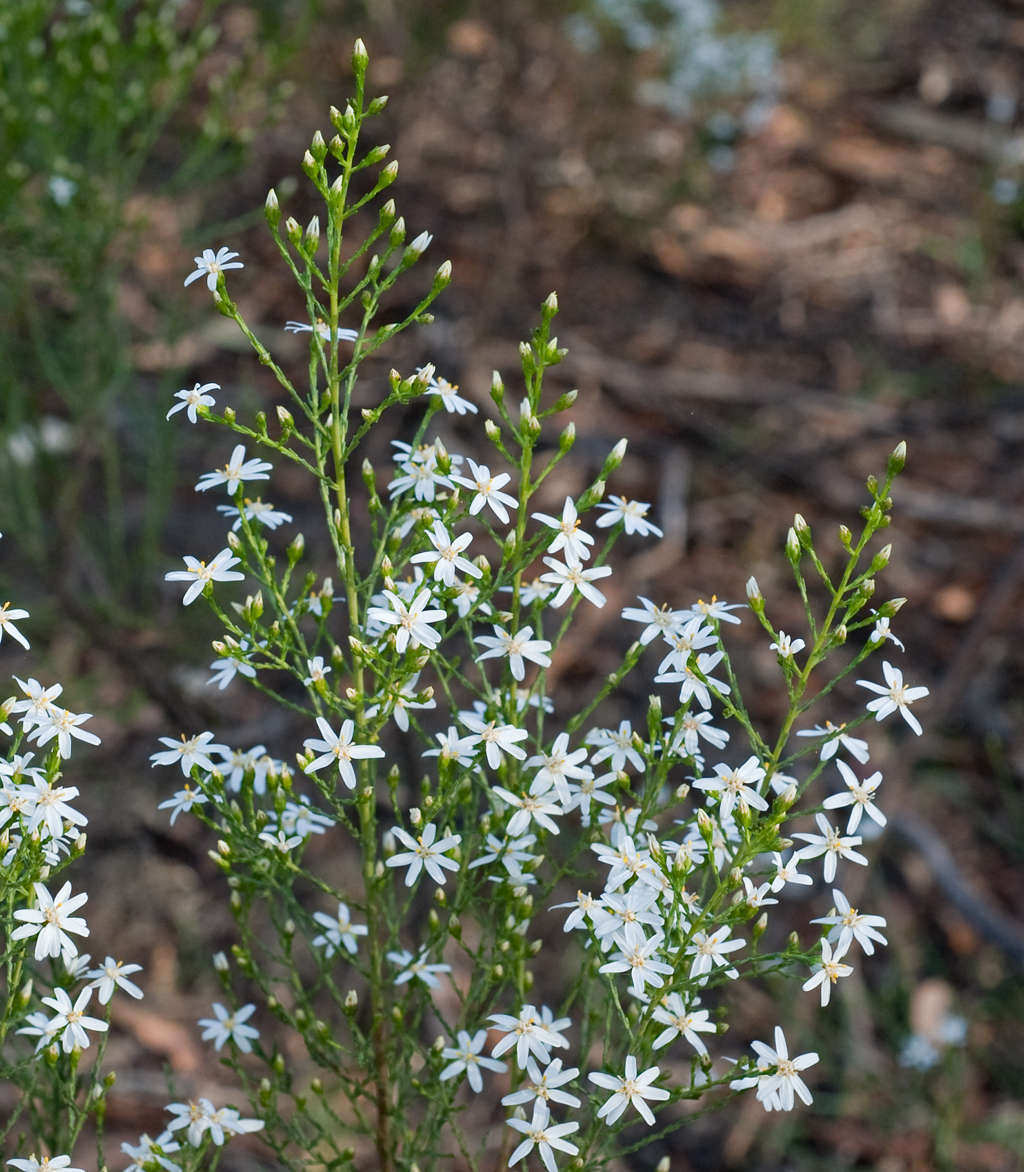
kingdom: Plantae
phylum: Tracheophyta
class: Magnoliopsida
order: Asterales
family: Asteraceae
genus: Olearia
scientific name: Olearia teretifolia
